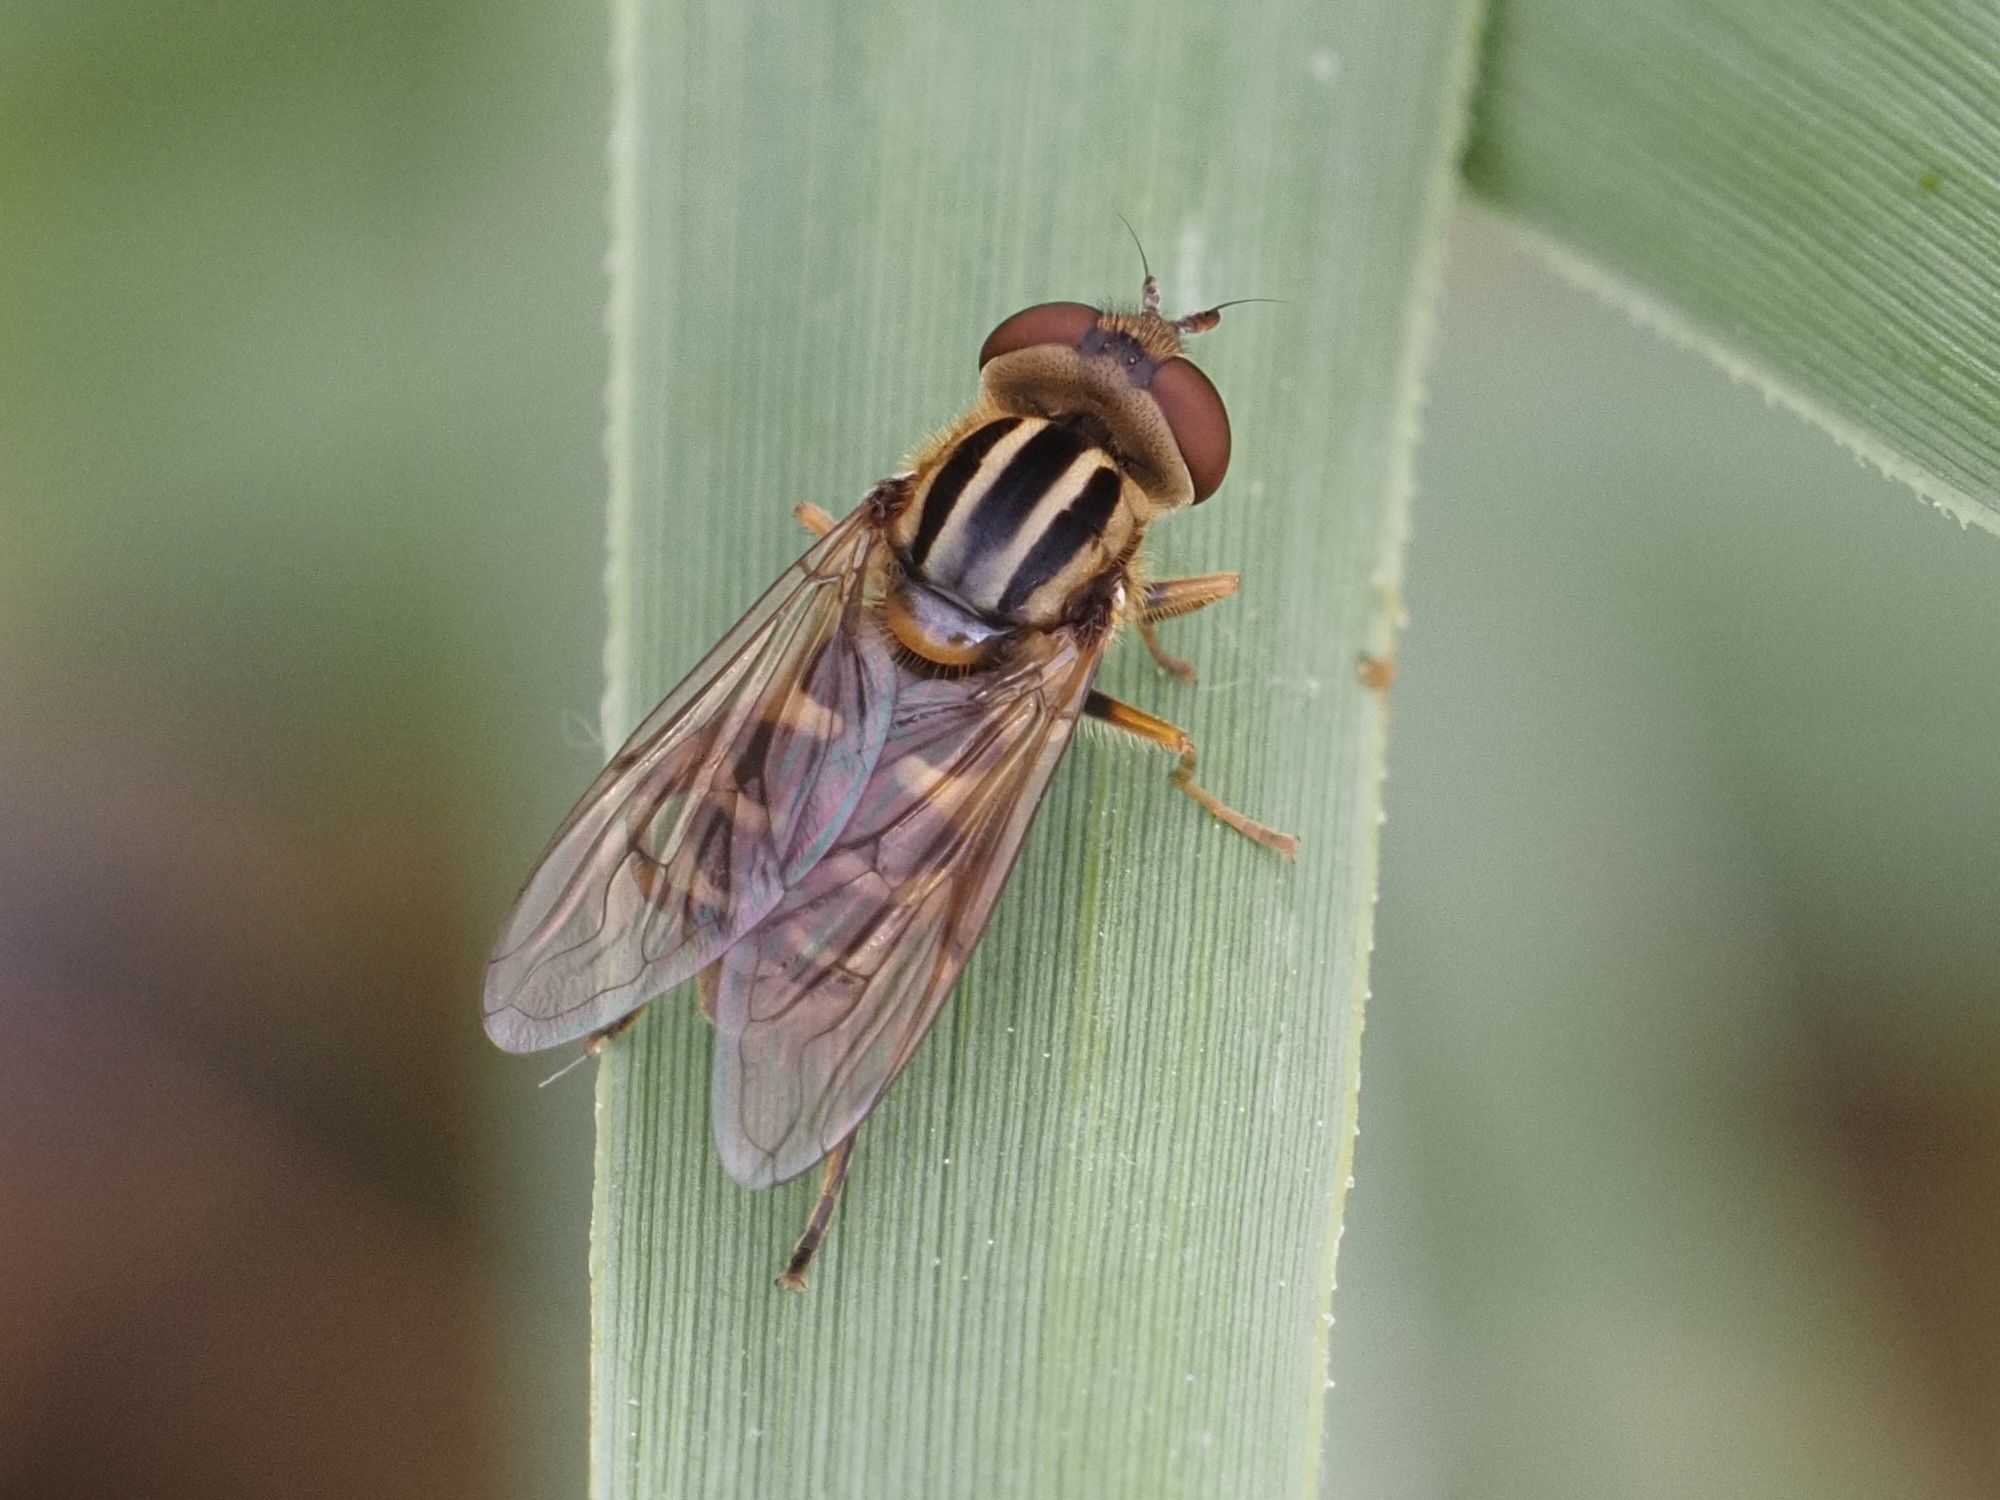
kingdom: Animalia
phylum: Arthropoda
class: Insecta
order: Diptera
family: Syrphidae
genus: Eurimyia
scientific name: Eurimyia lineatus
